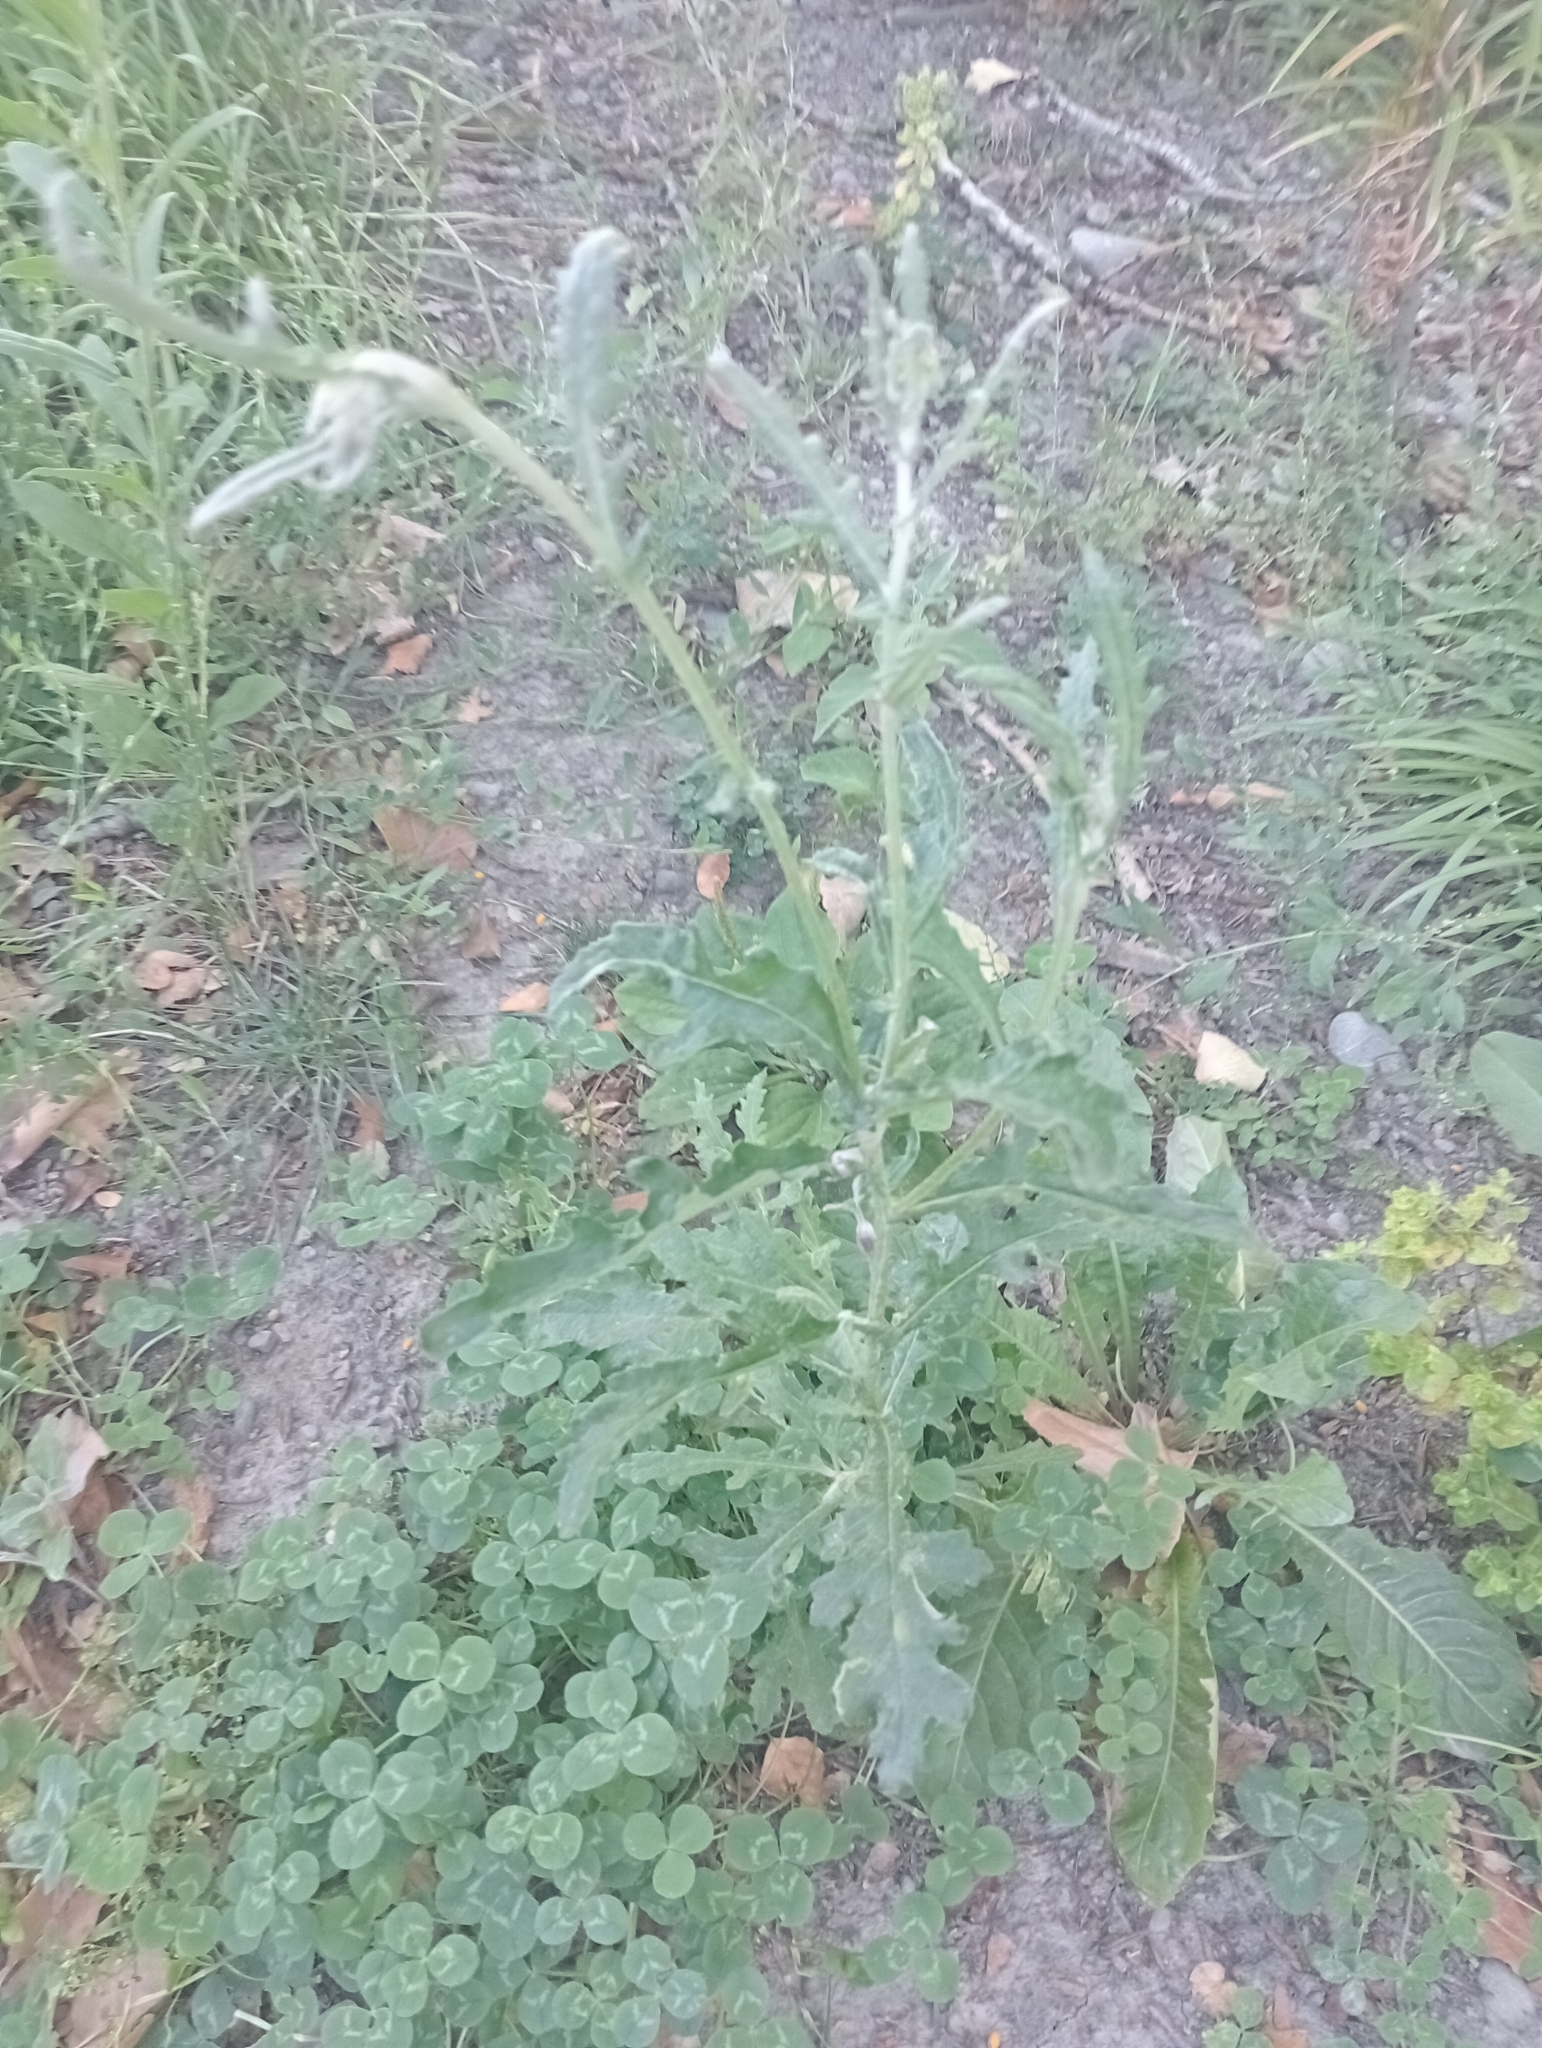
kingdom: Plantae
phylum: Tracheophyta
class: Magnoliopsida
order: Asterales
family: Asteraceae
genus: Senecio
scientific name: Senecio glomeratus
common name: Cutleaf burnweed
